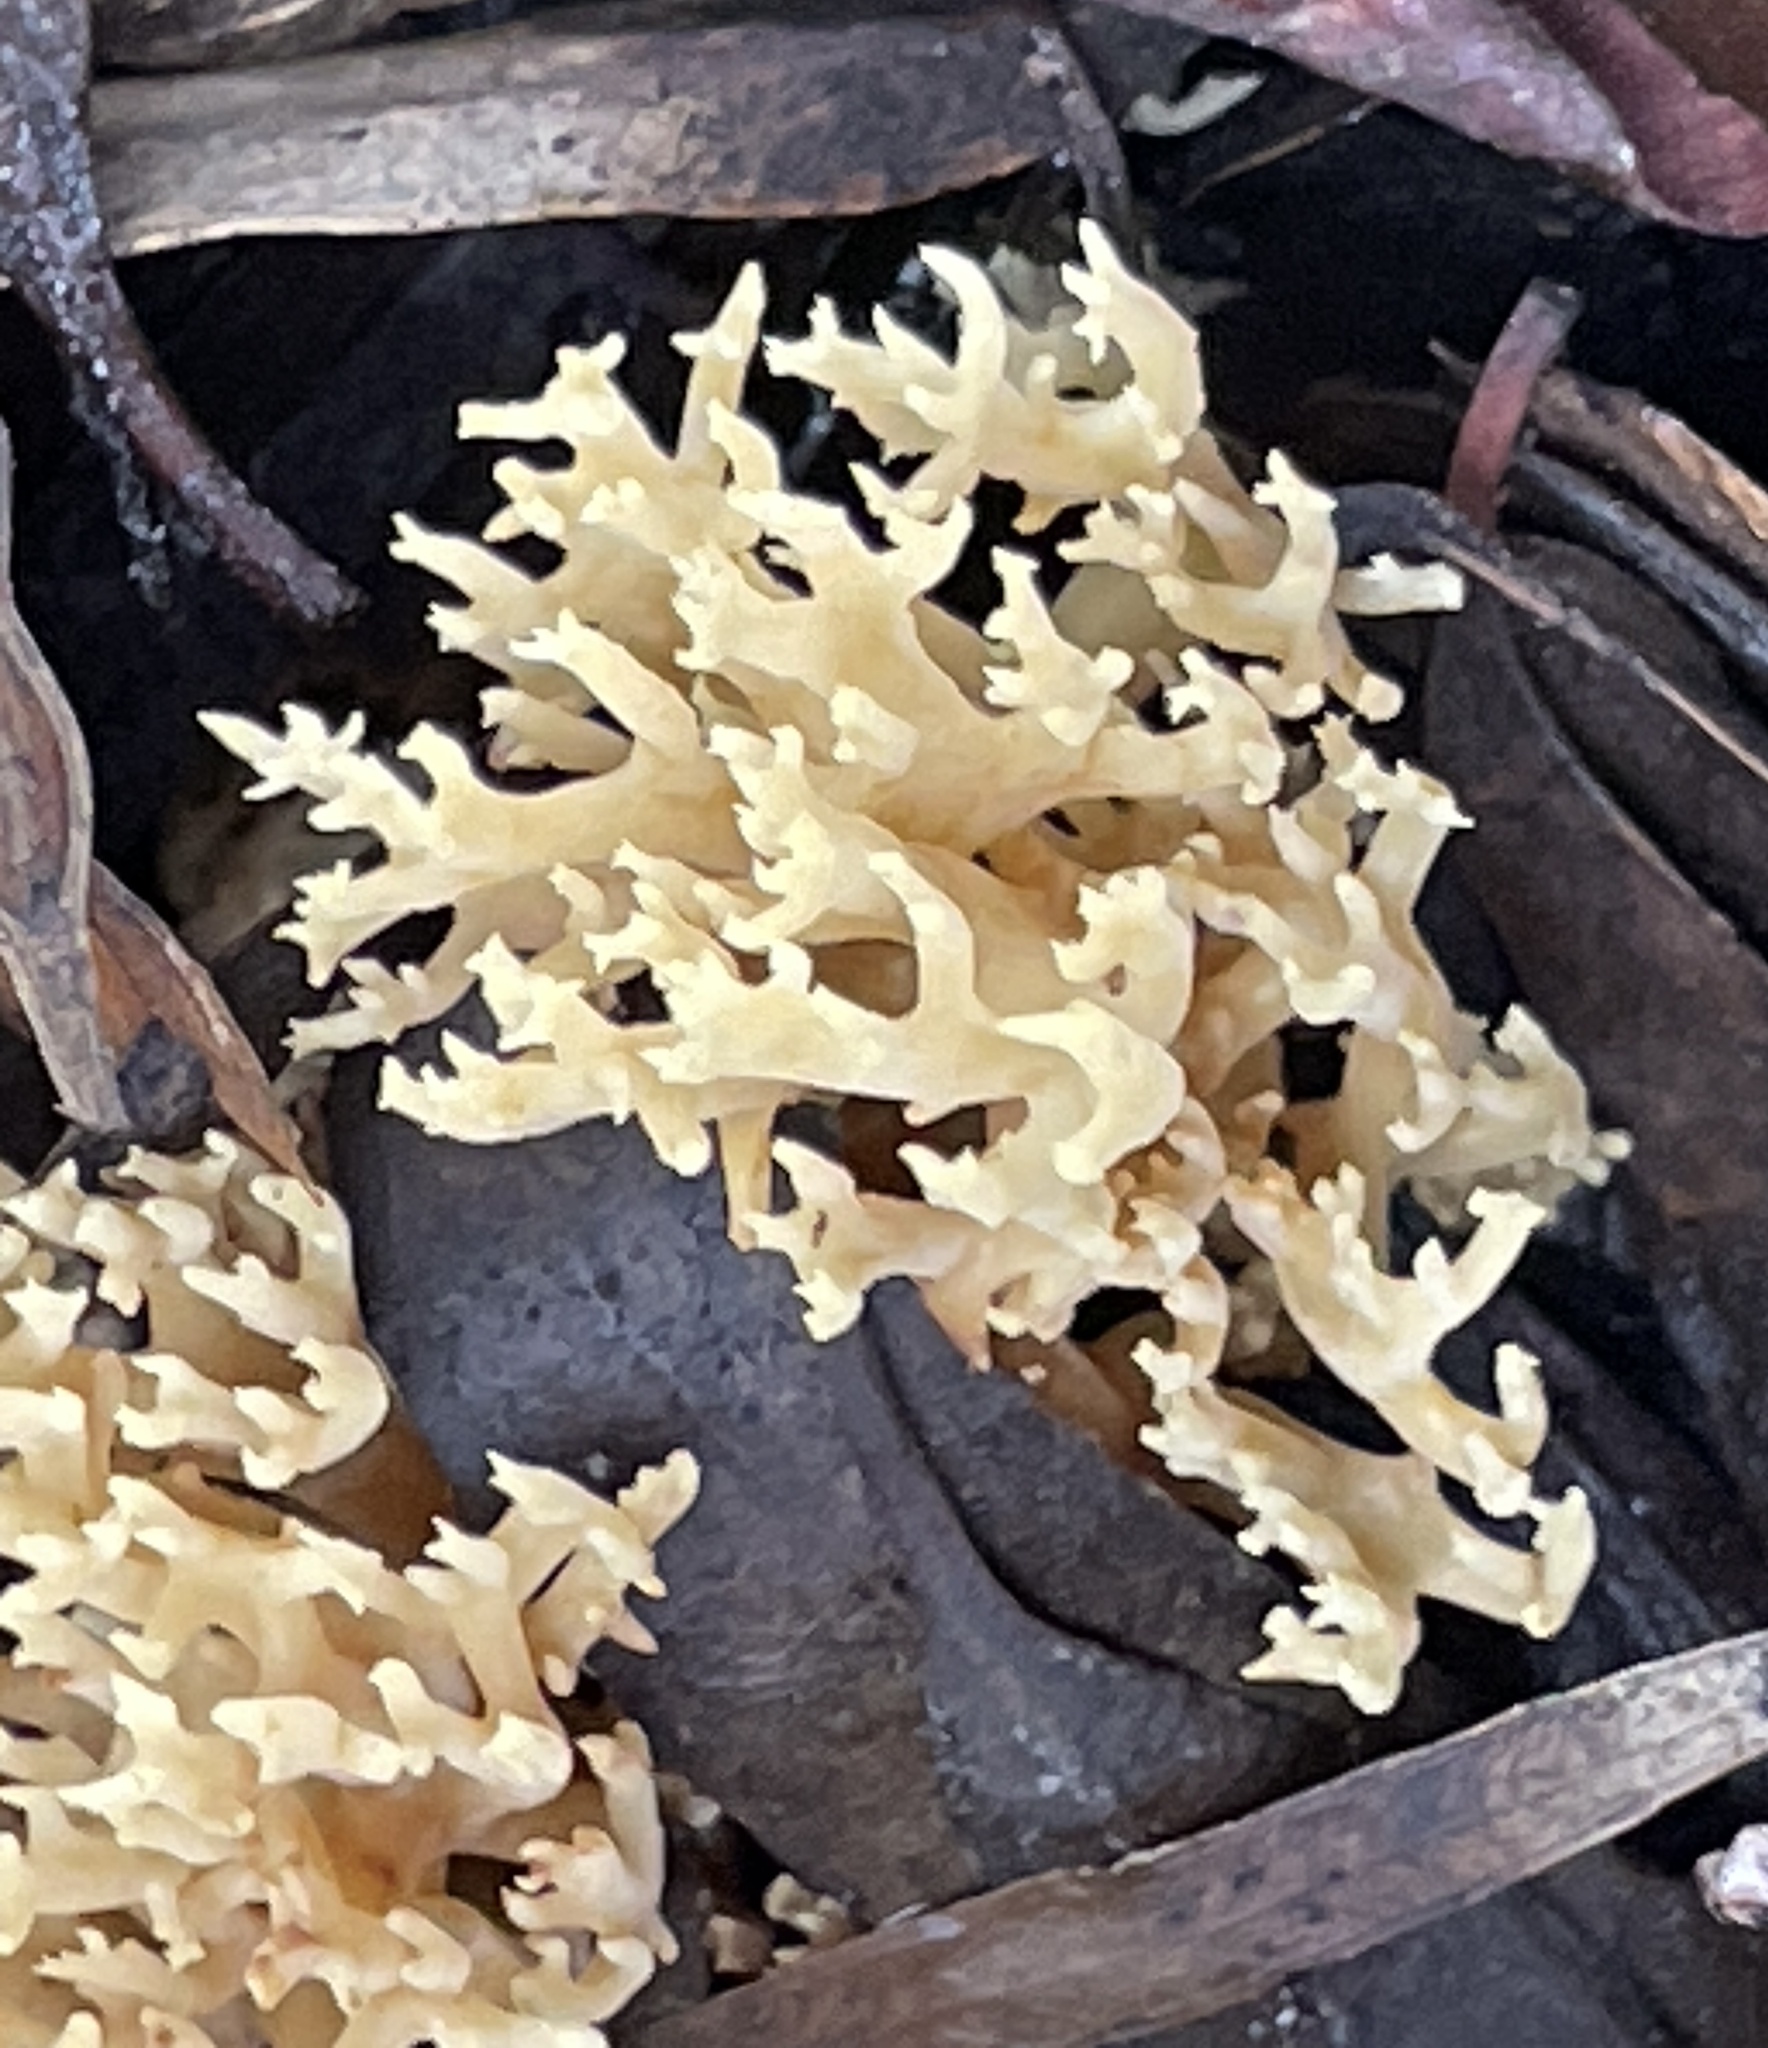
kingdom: Fungi
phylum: Basidiomycota
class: Agaricomycetes
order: Agaricales
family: Clavariaceae
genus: Ramariopsis
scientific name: Ramariopsis kunzei
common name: Ivory coral
